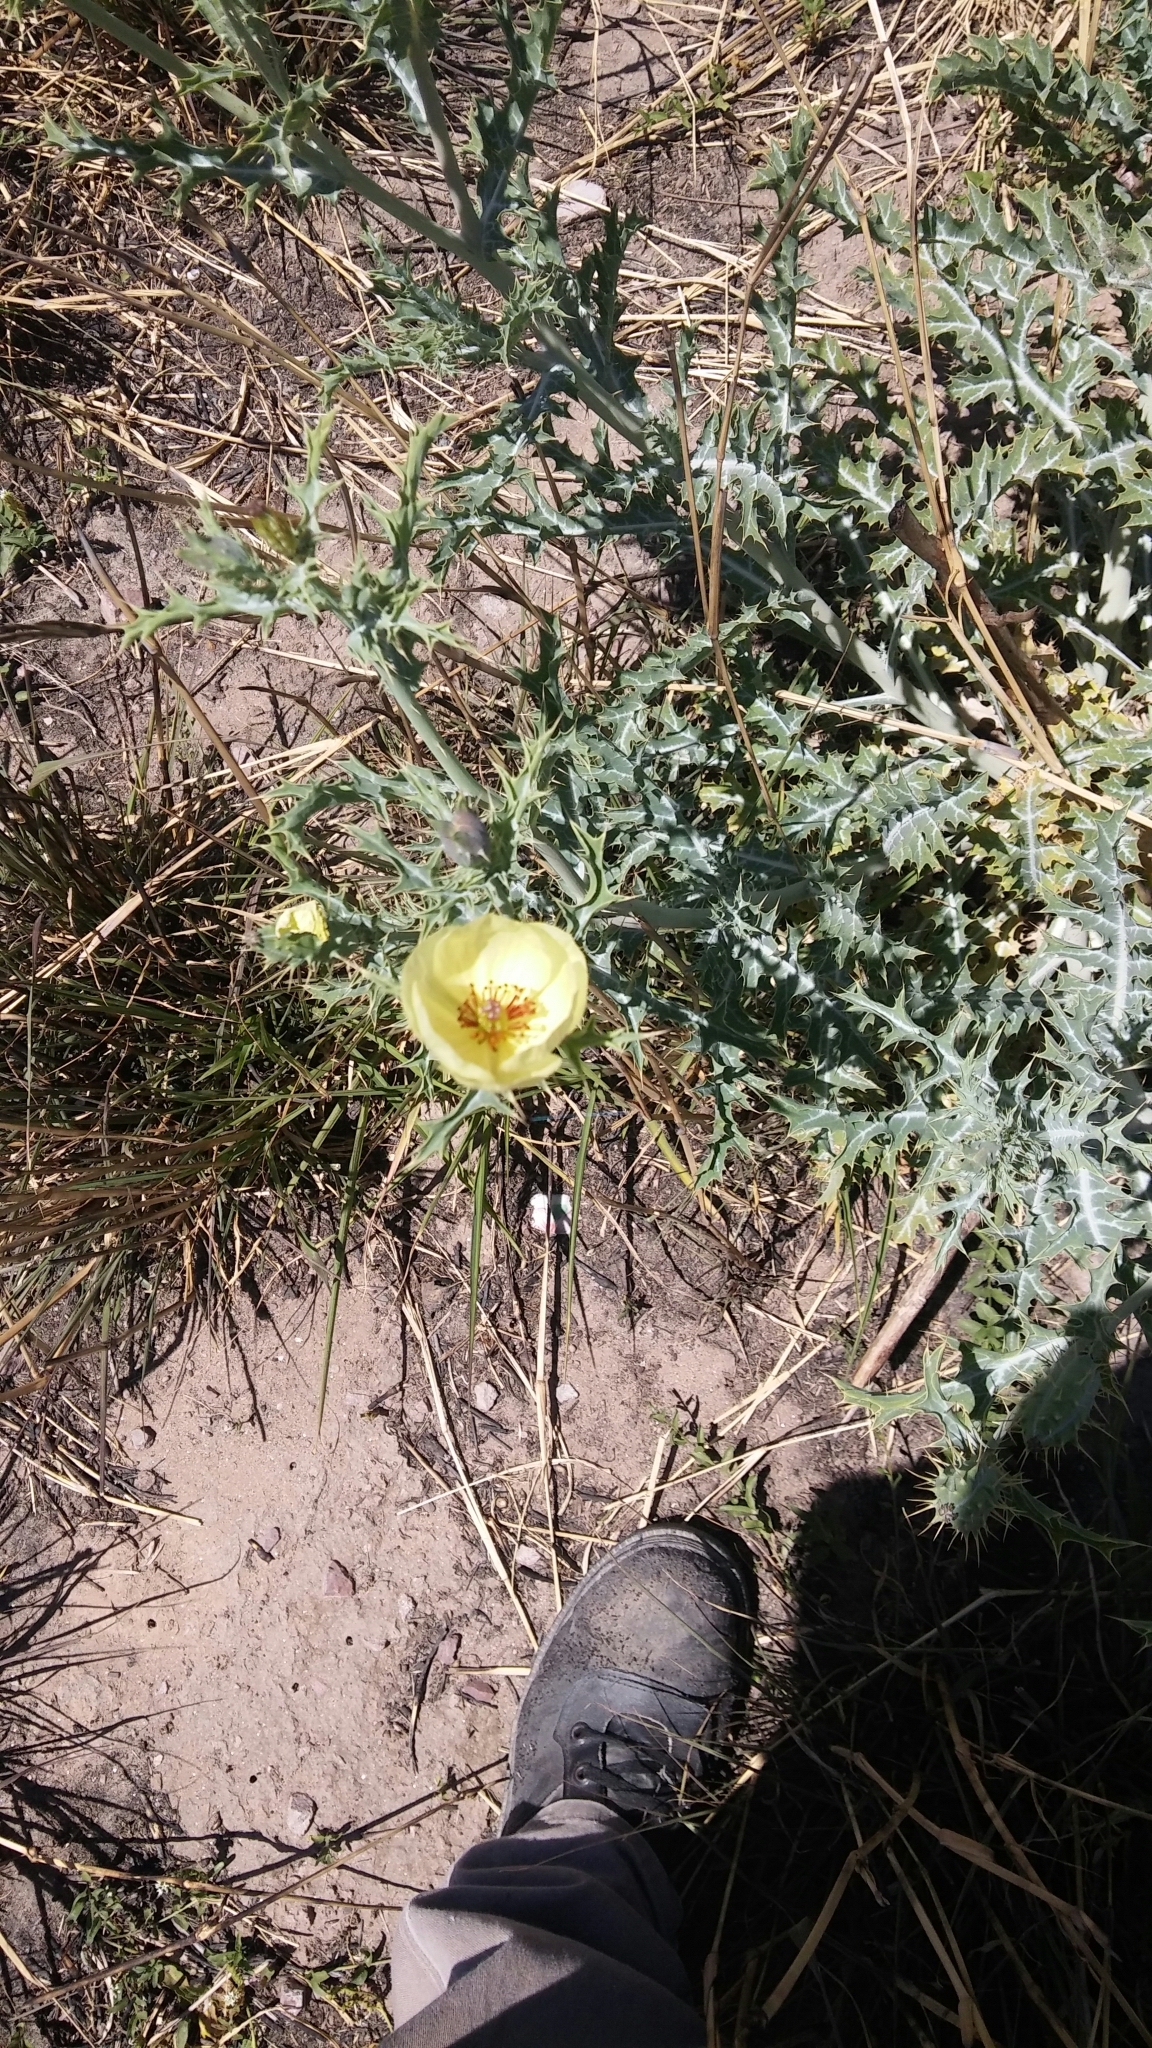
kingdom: Plantae
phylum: Tracheophyta
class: Magnoliopsida
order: Ranunculales
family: Papaveraceae
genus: Argemone
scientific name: Argemone subfusiformis
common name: American-poppy
